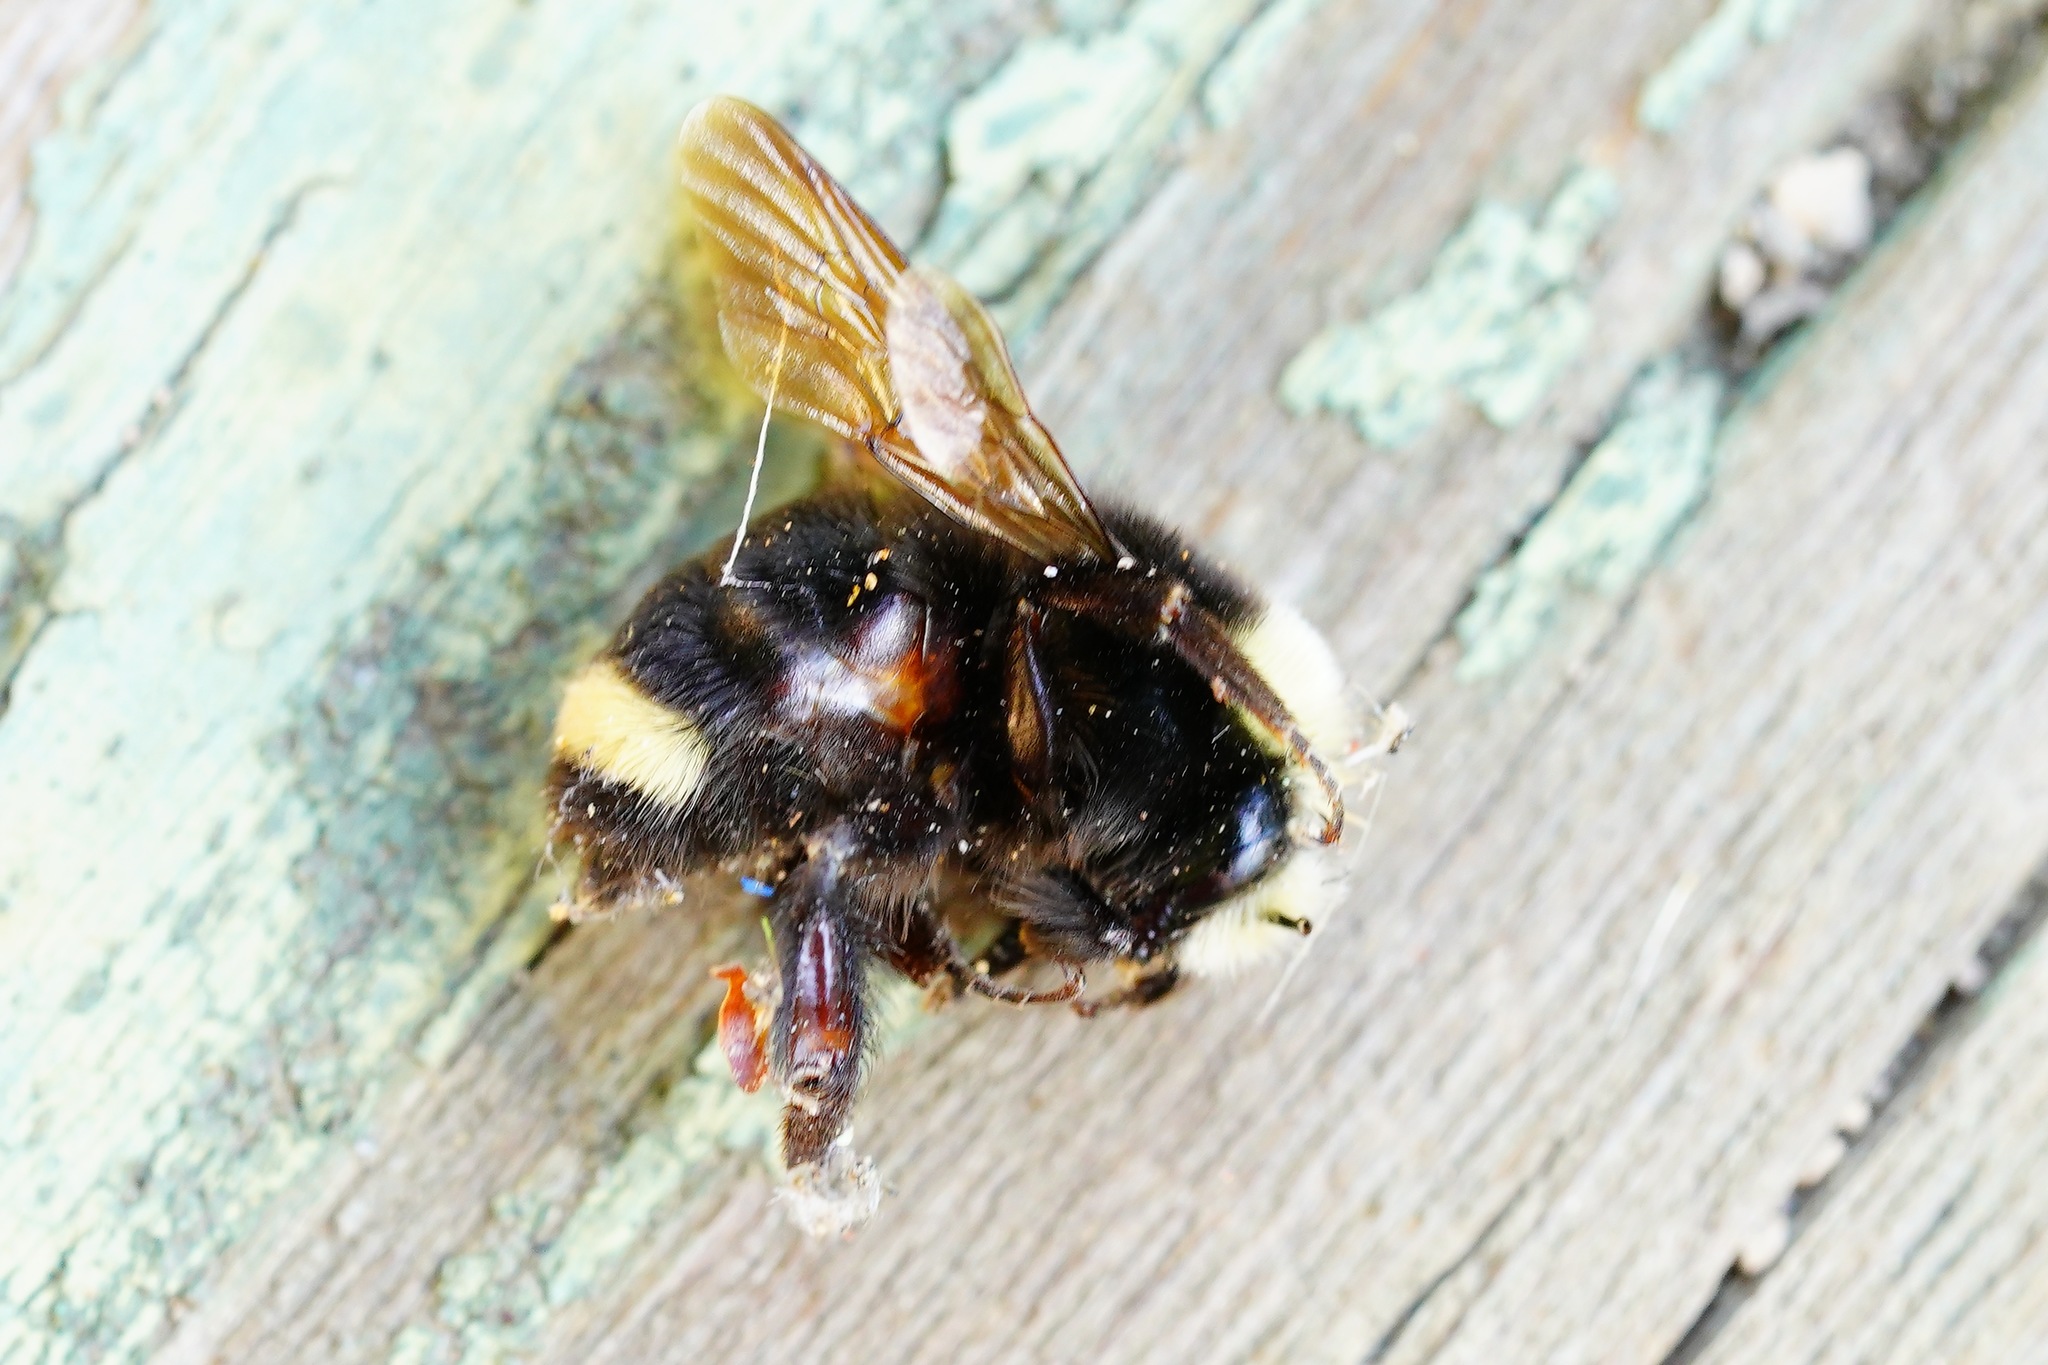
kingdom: Animalia
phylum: Arthropoda
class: Insecta
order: Hymenoptera
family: Apidae
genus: Bombus
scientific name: Bombus vosnesenskii
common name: Vosnesensky bumble bee
